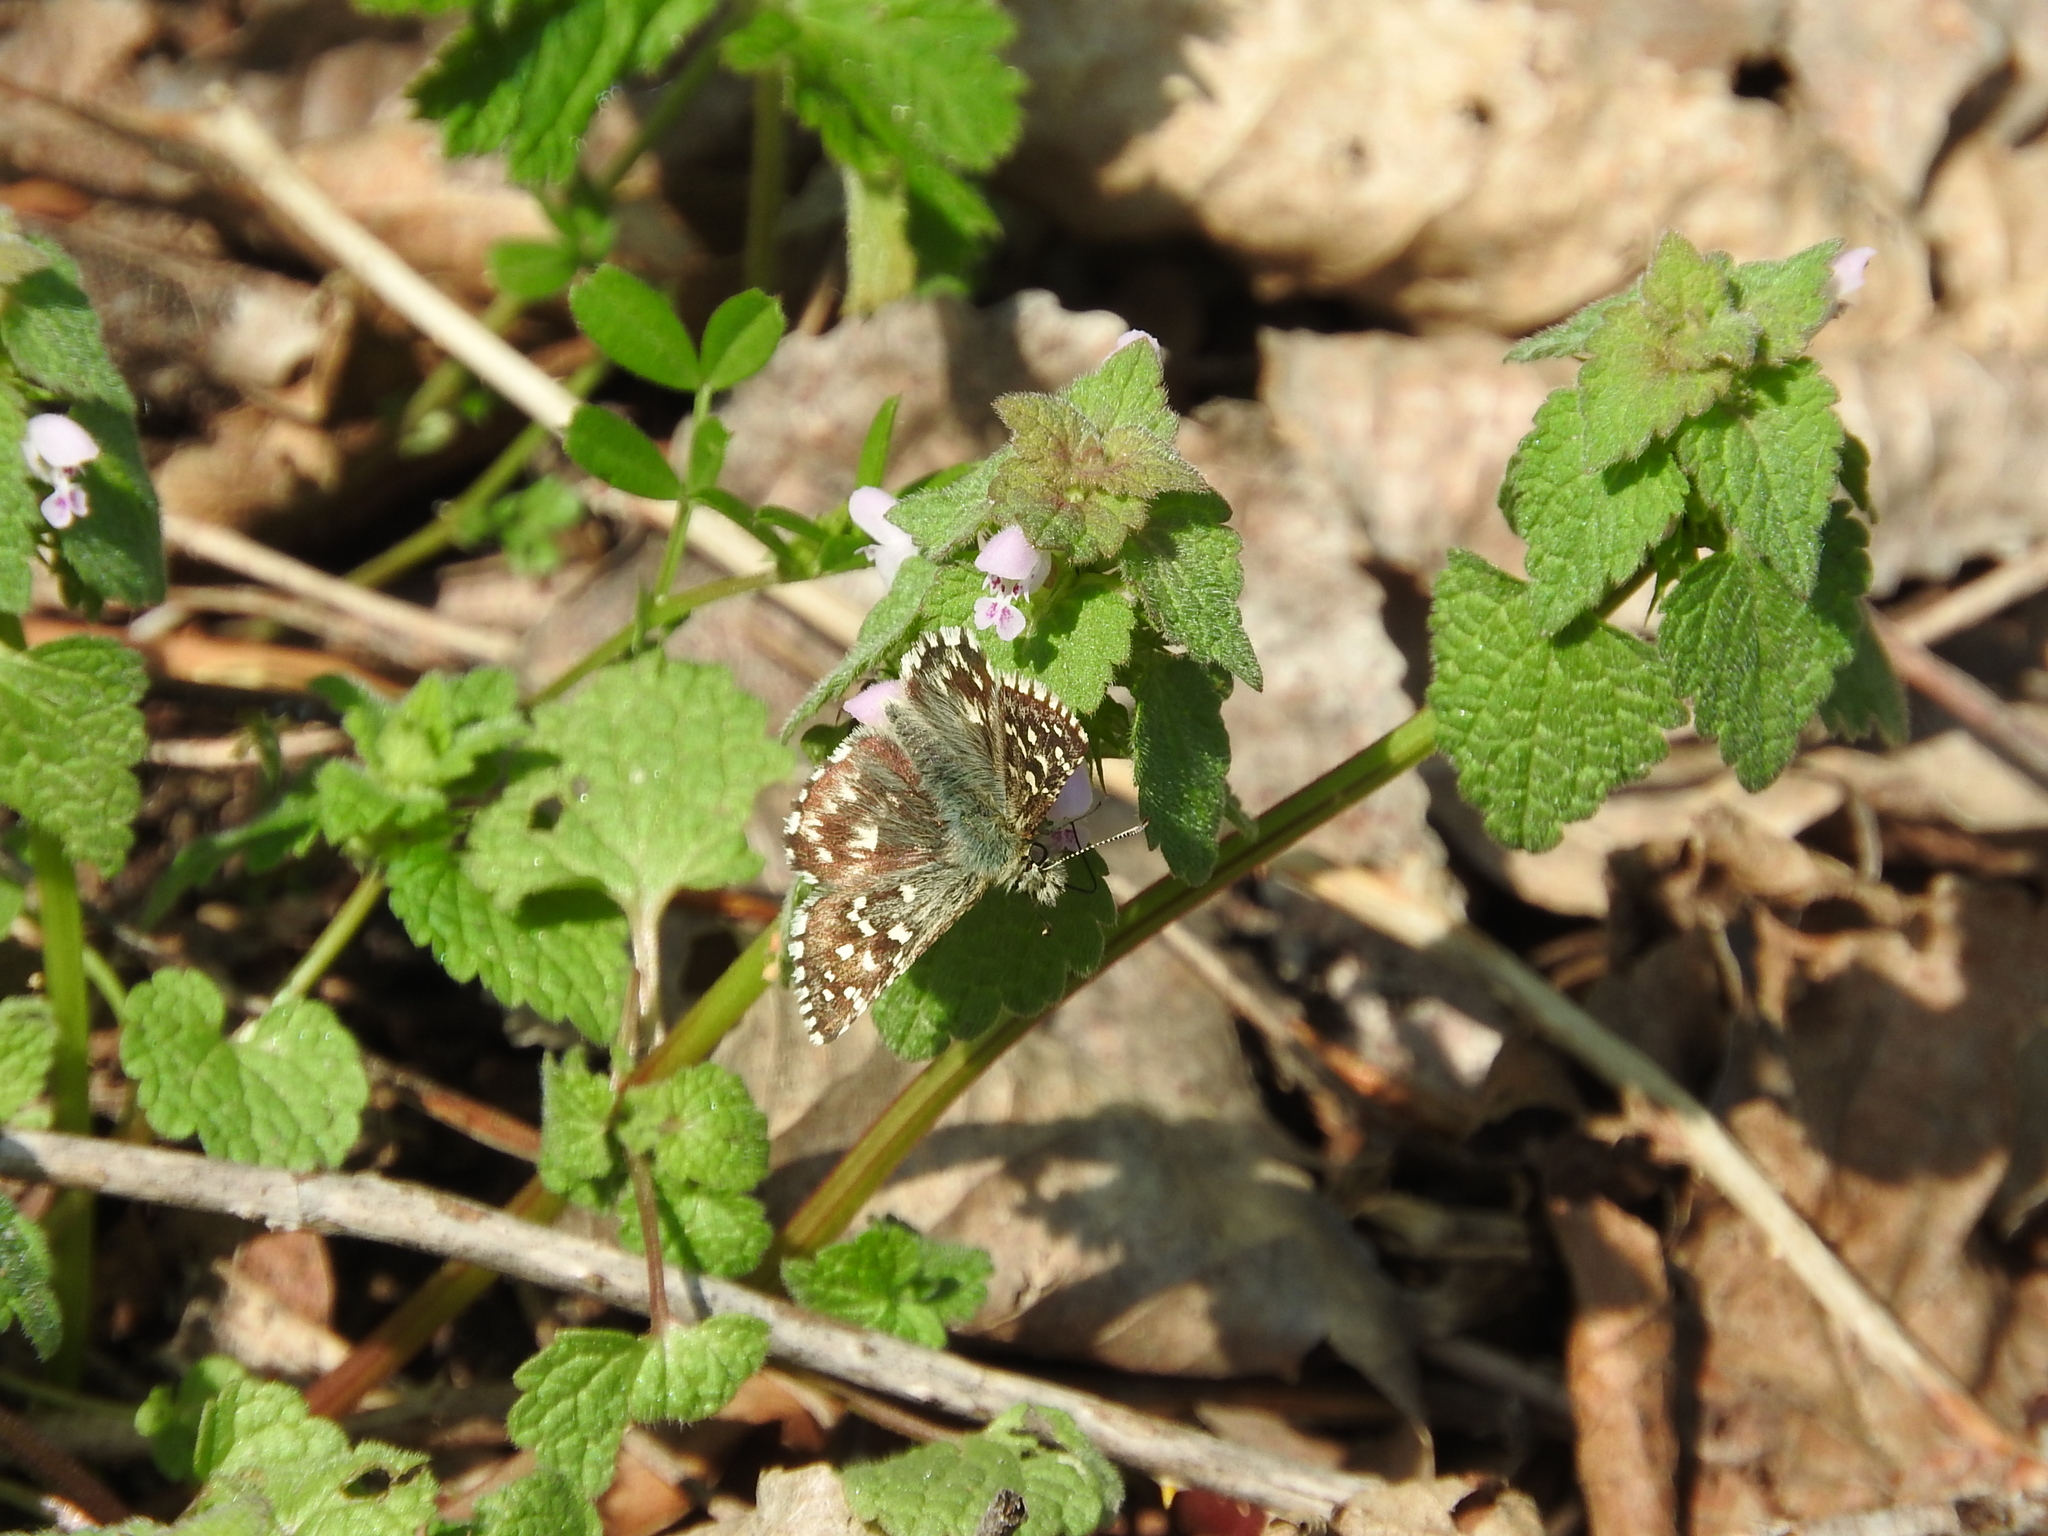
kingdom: Animalia
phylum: Arthropoda
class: Insecta
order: Lepidoptera
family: Hesperiidae
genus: Pyrgus
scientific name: Pyrgus malvoides
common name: Southern grizzled skipper
